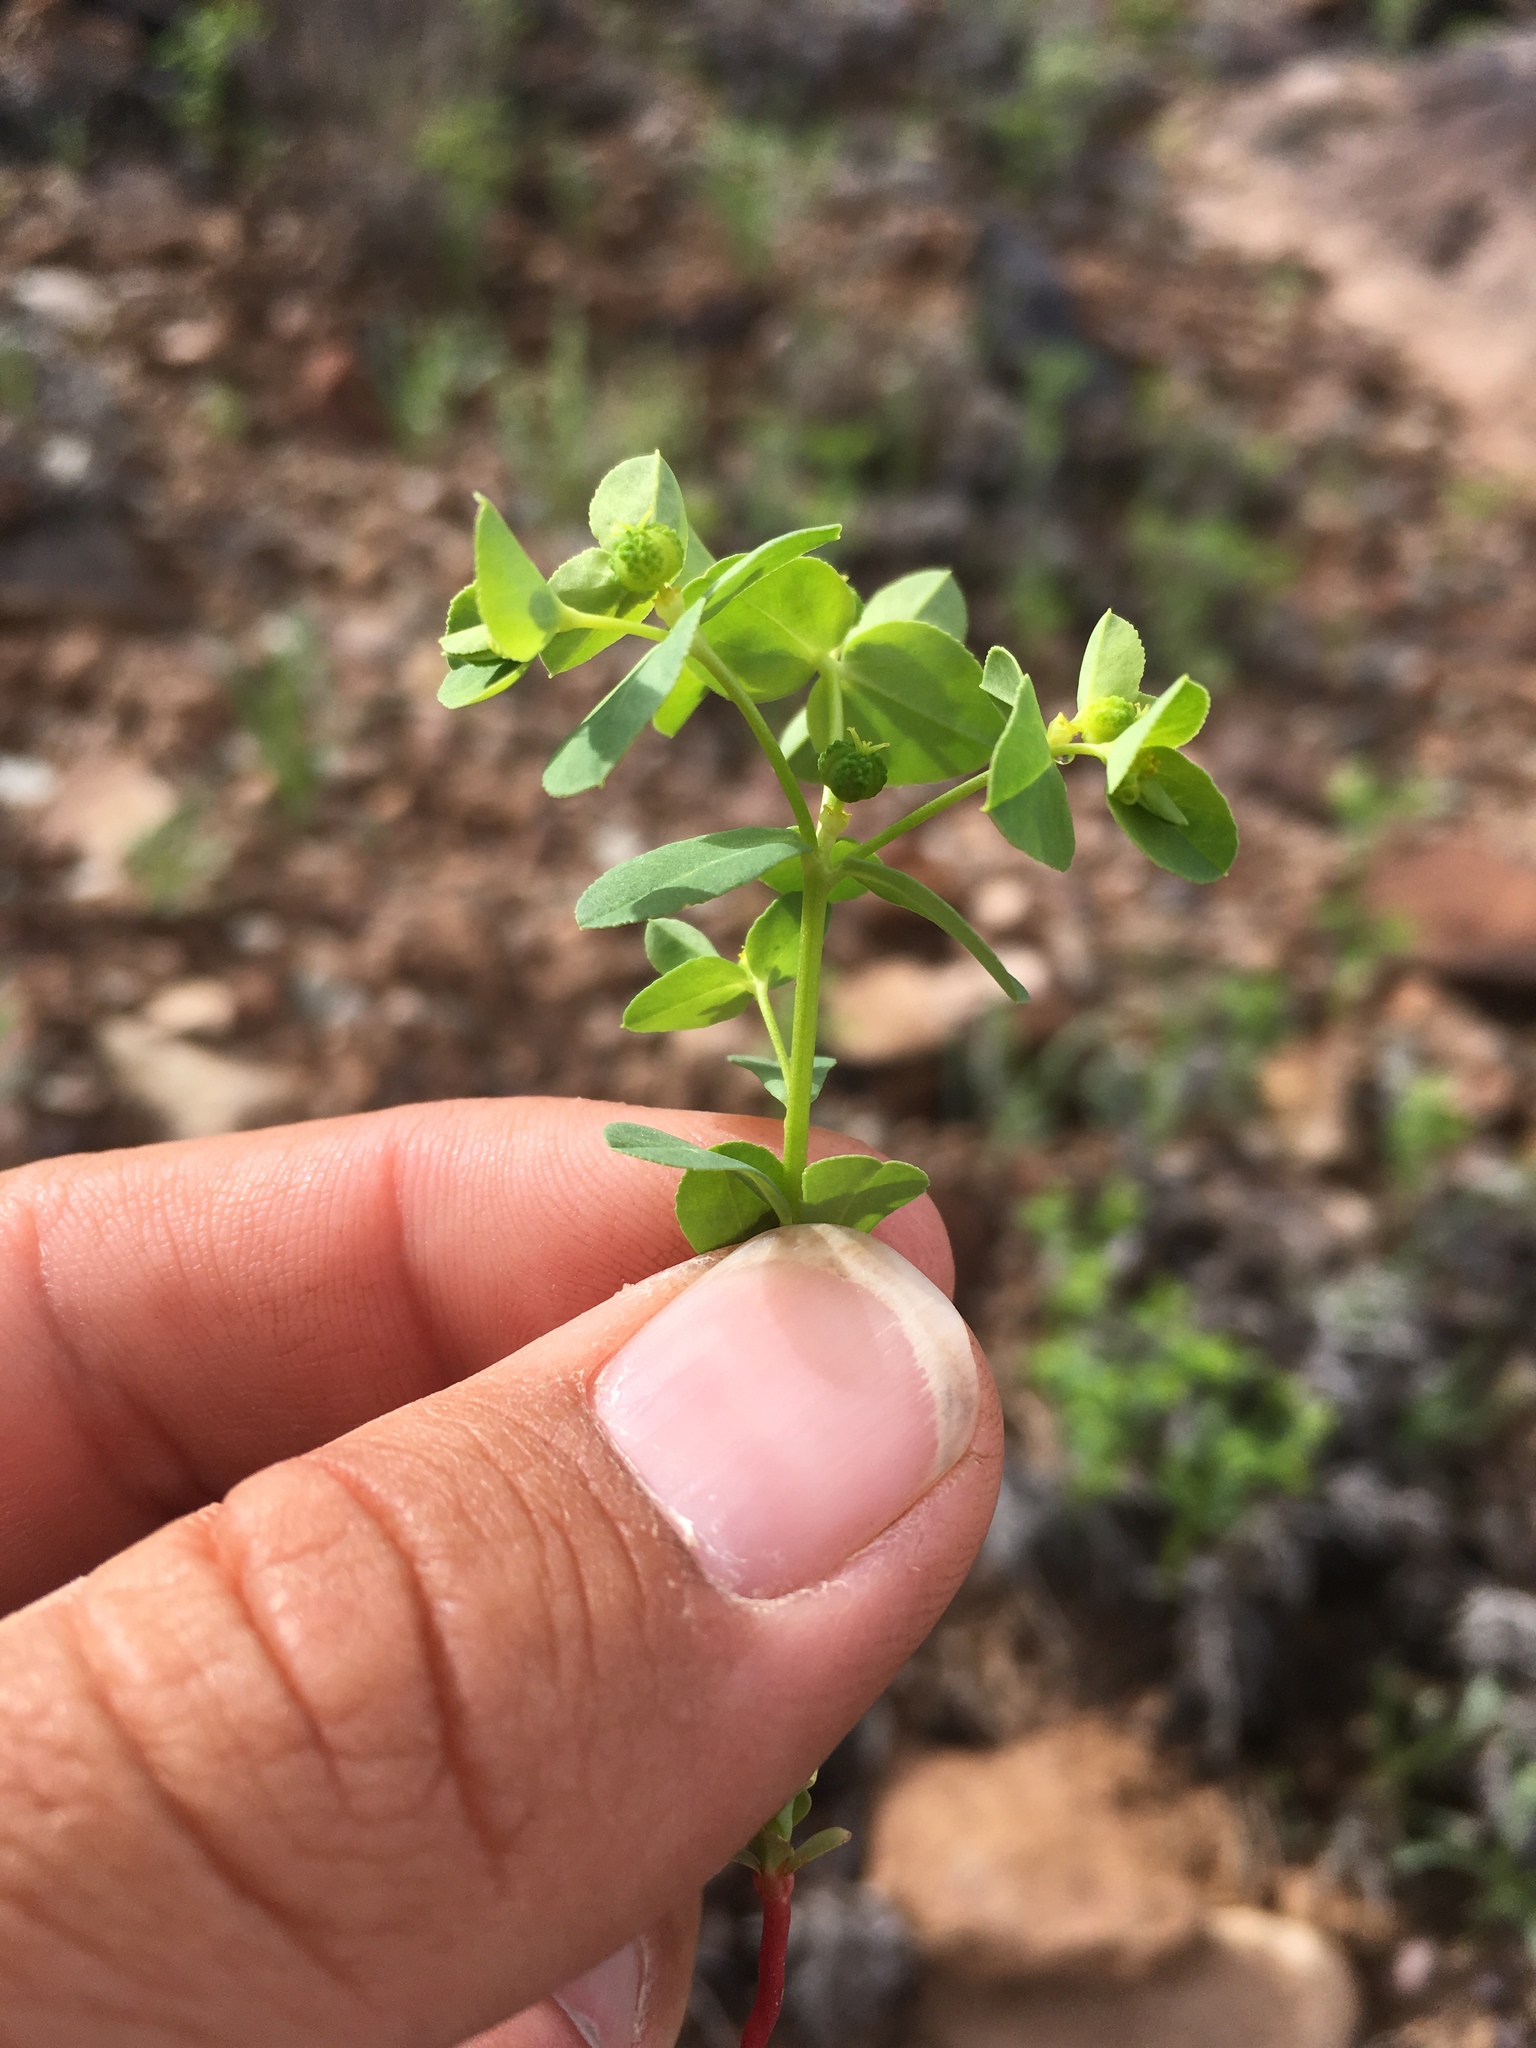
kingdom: Plantae
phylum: Tracheophyta
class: Magnoliopsida
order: Malpighiales
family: Euphorbiaceae
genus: Euphorbia
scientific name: Euphorbia spathulata
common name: Blunt spurge
